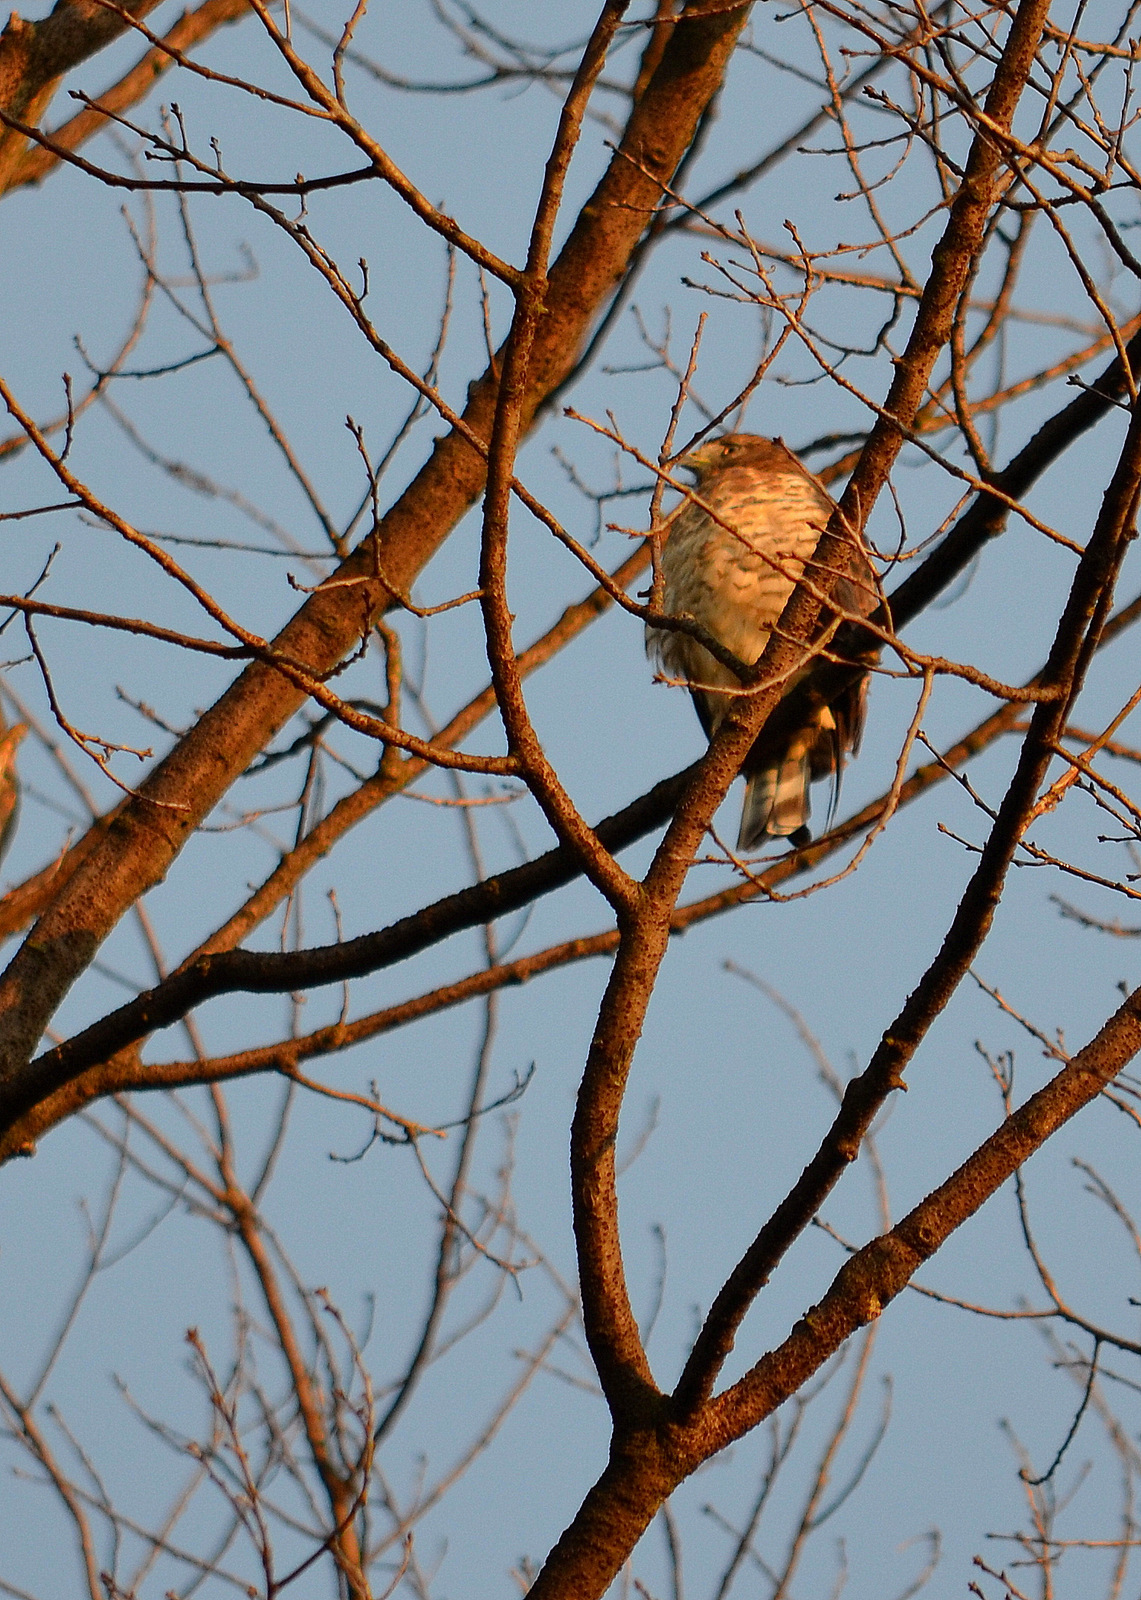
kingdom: Animalia
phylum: Chordata
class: Aves
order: Accipitriformes
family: Accipitridae
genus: Buteo
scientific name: Buteo platypterus
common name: Broad-winged hawk
